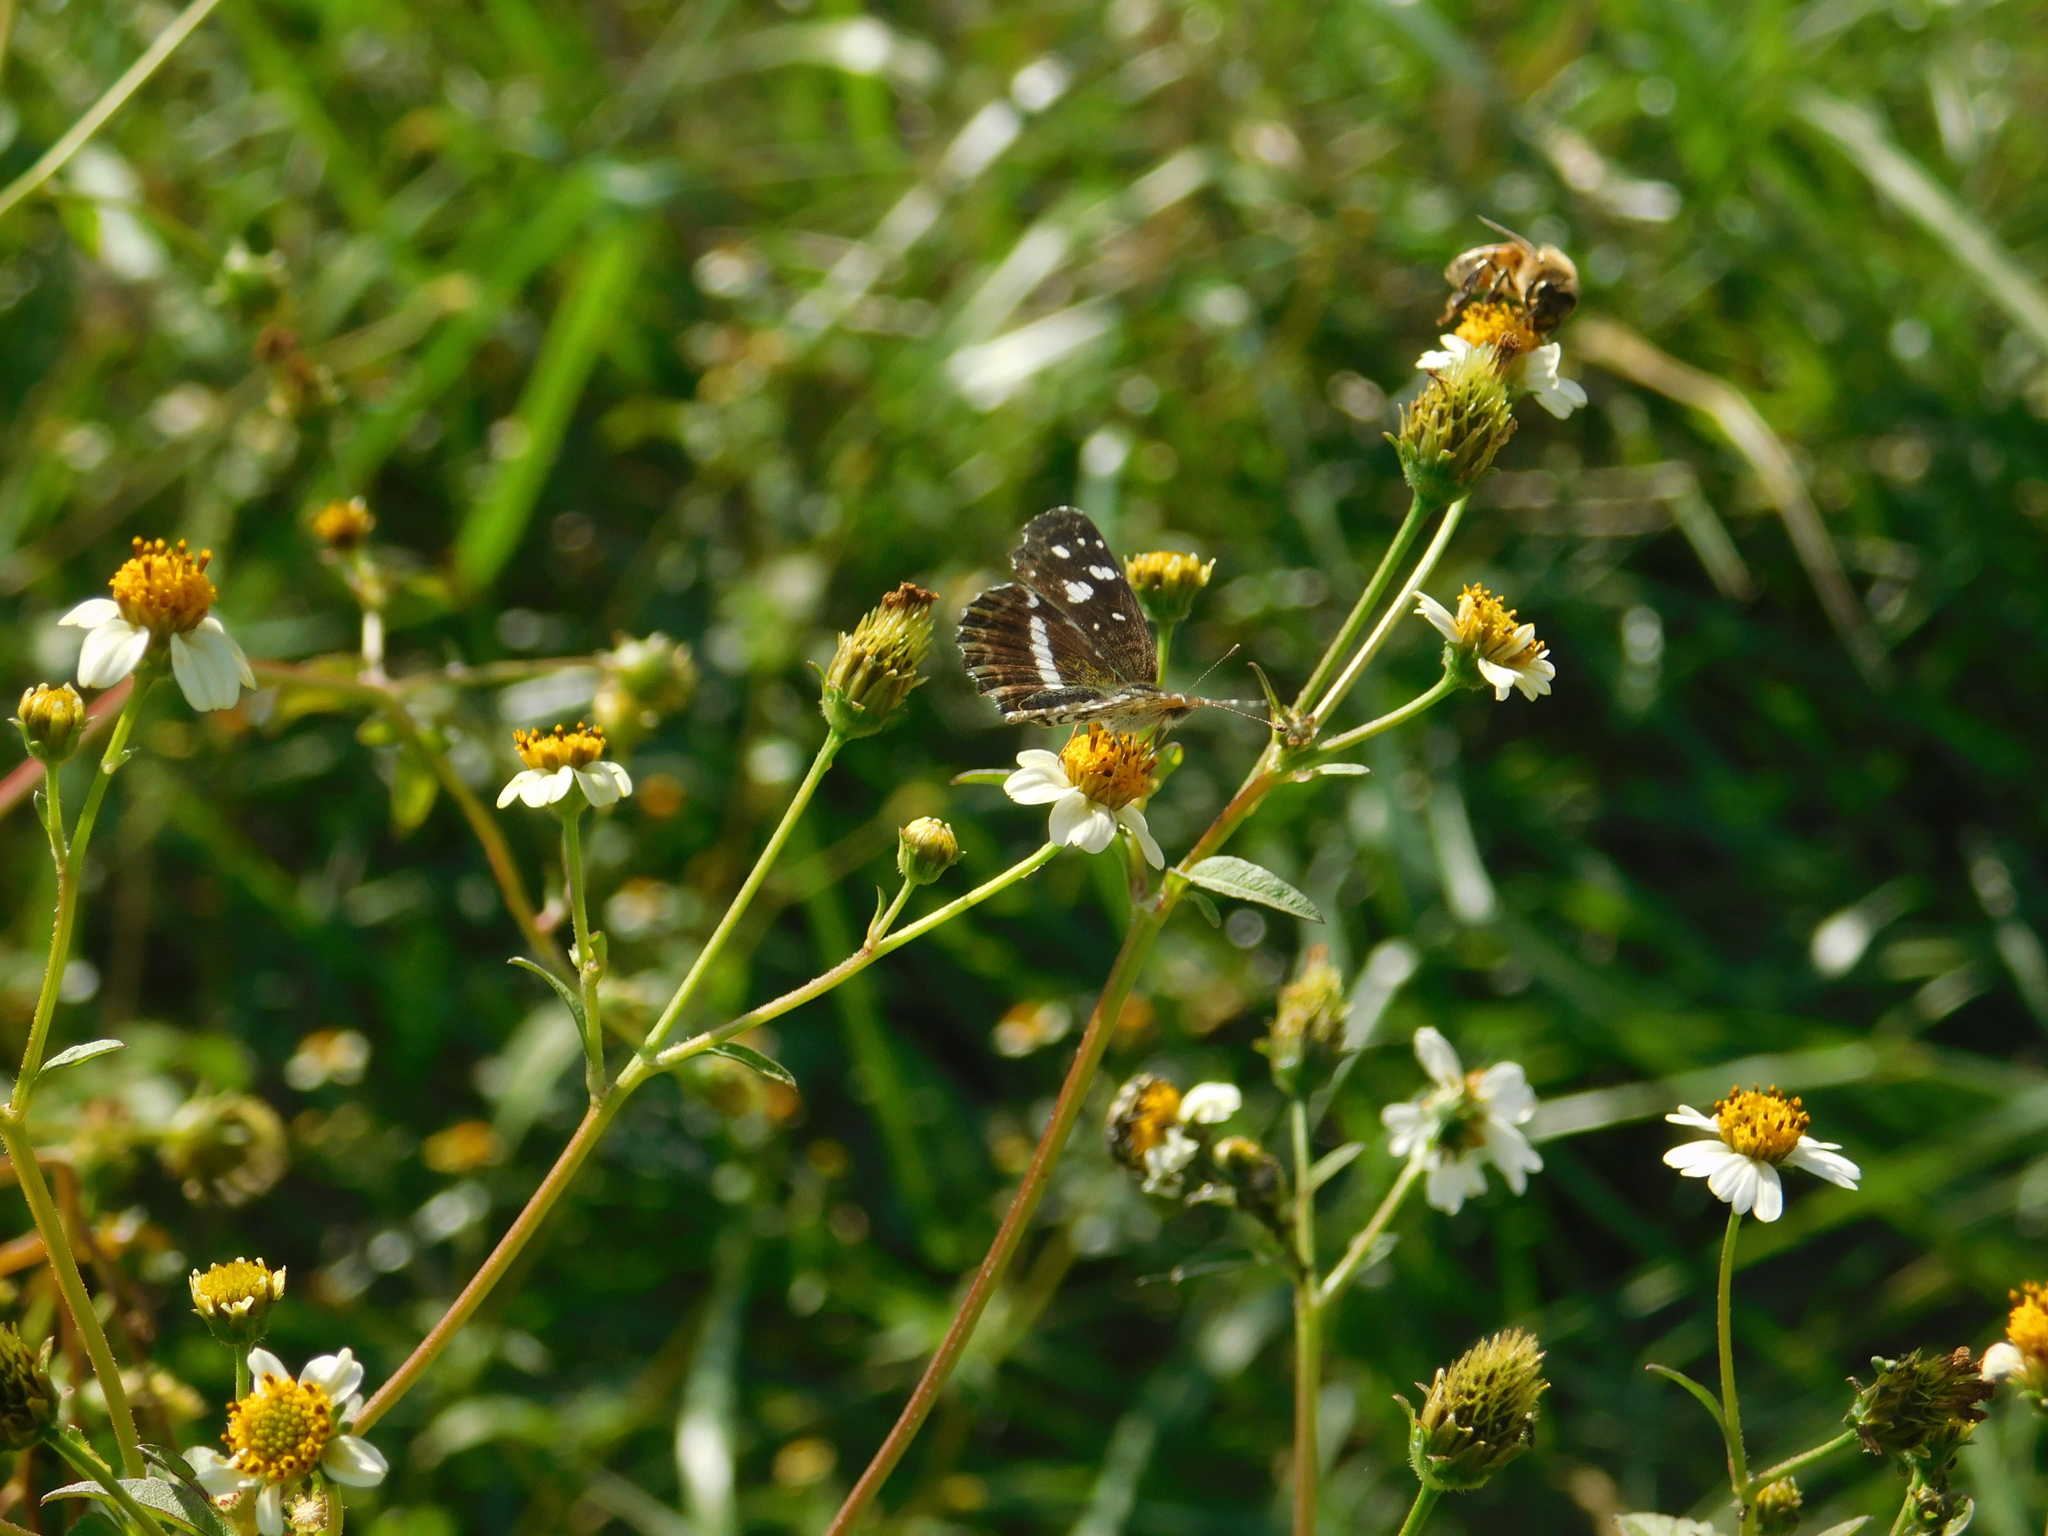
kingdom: Animalia
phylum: Arthropoda
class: Insecta
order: Lepidoptera
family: Nymphalidae
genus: Ortilia
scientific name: Ortilia ithra
